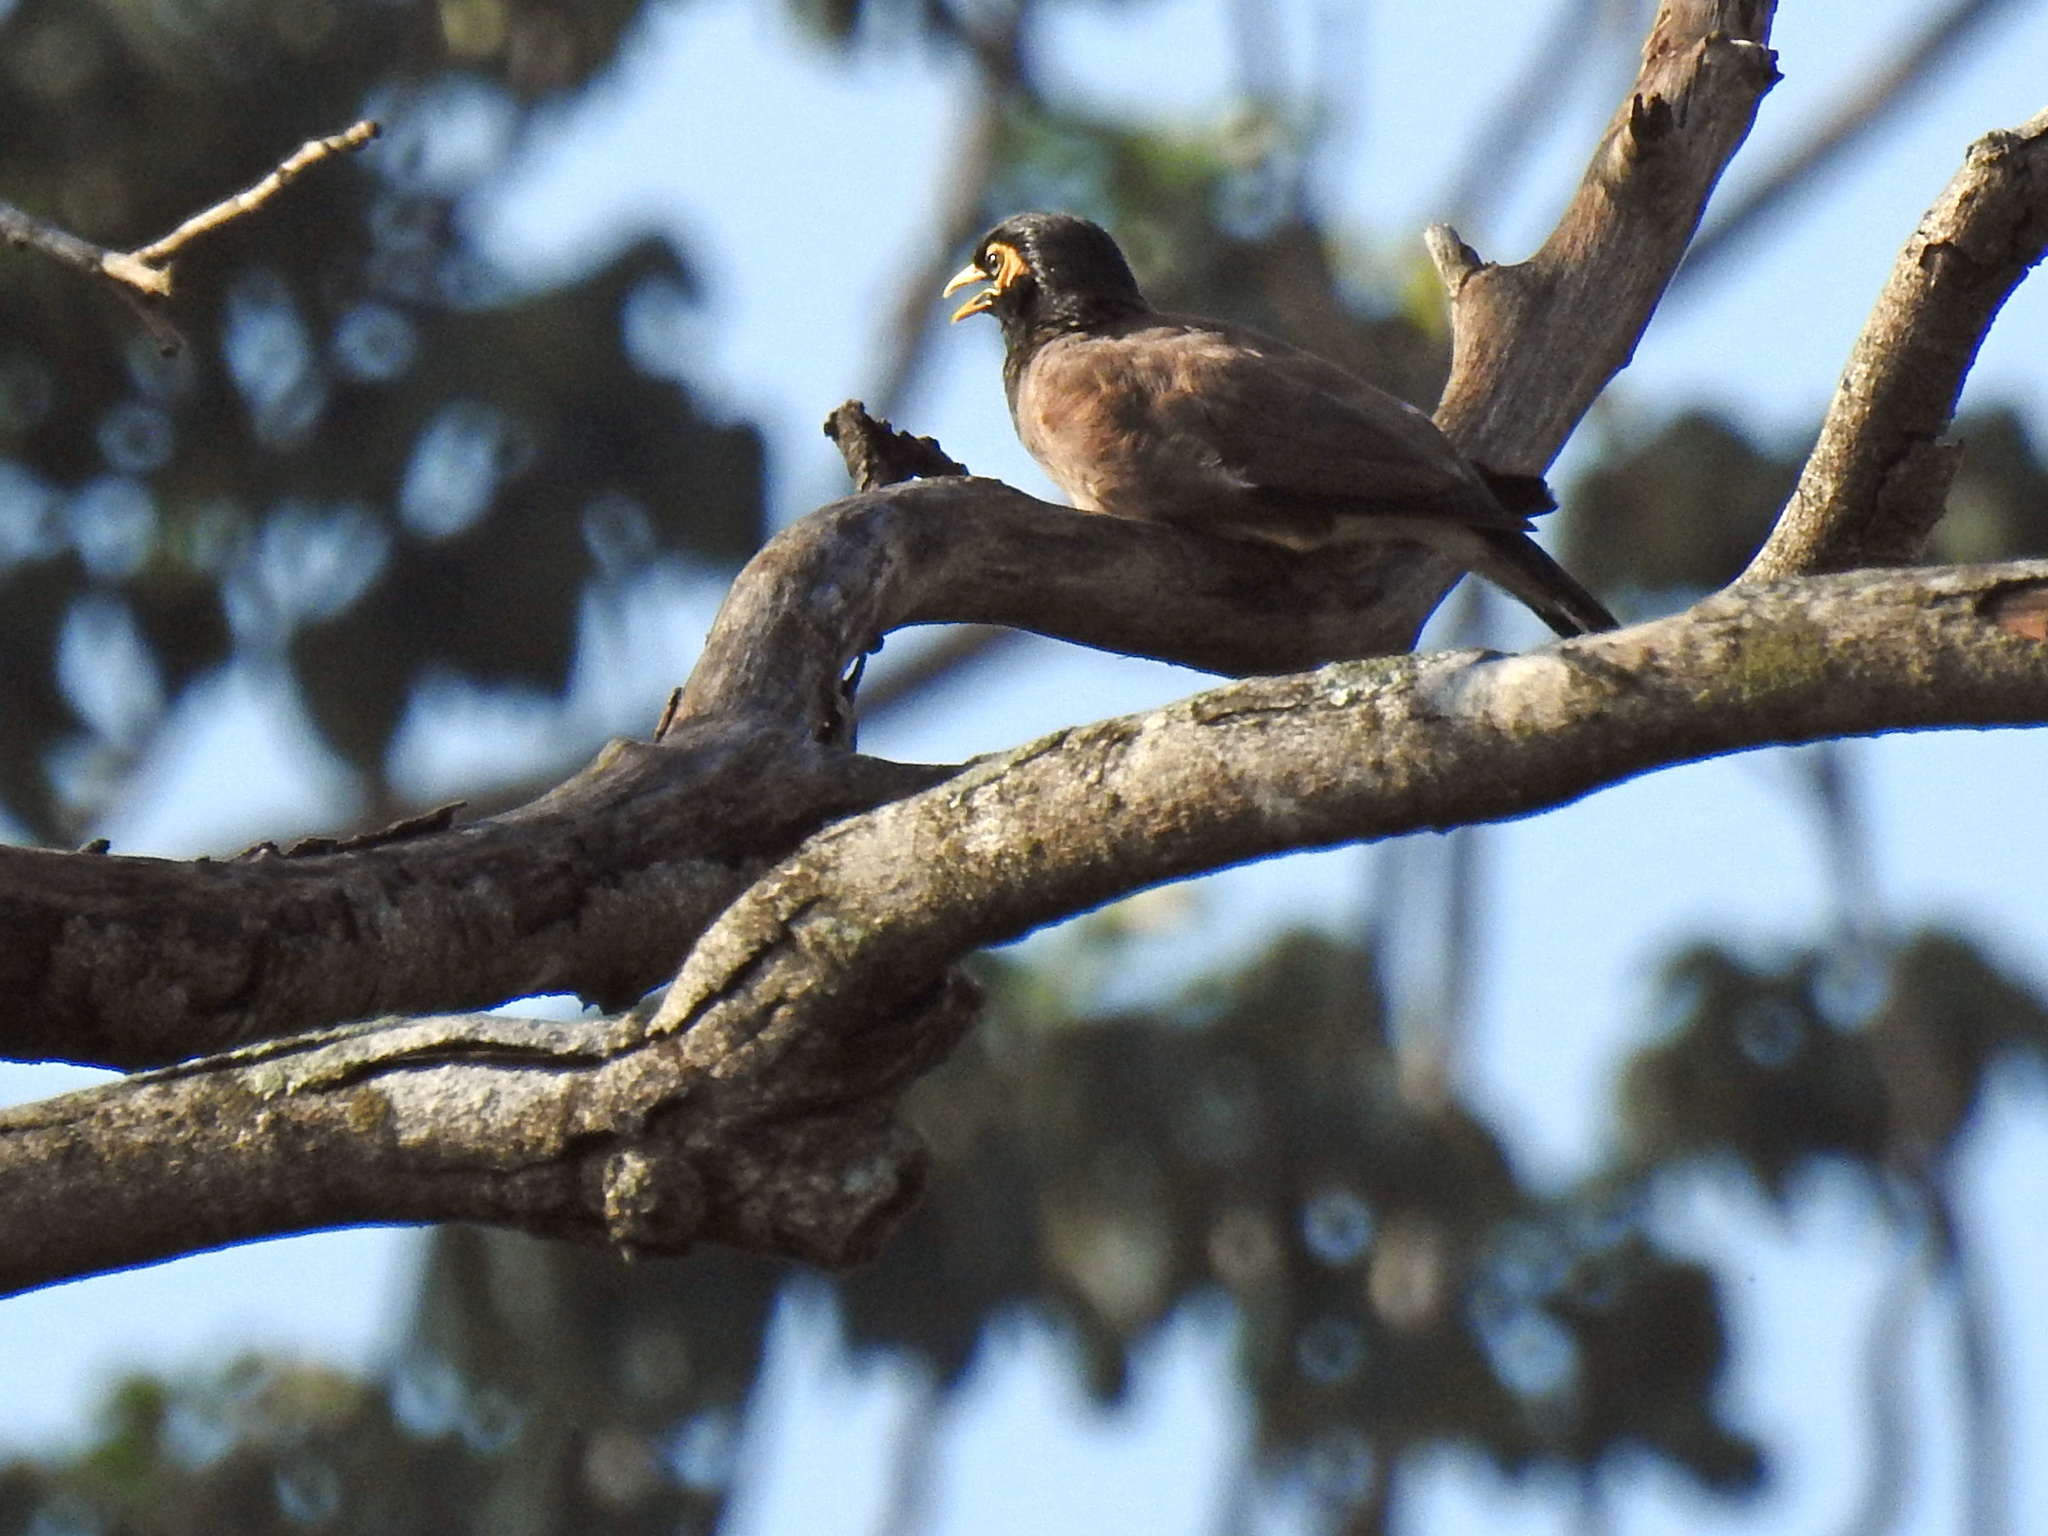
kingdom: Animalia
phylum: Chordata
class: Aves
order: Passeriformes
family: Sturnidae
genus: Acridotheres
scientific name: Acridotheres tristis
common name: Common myna
